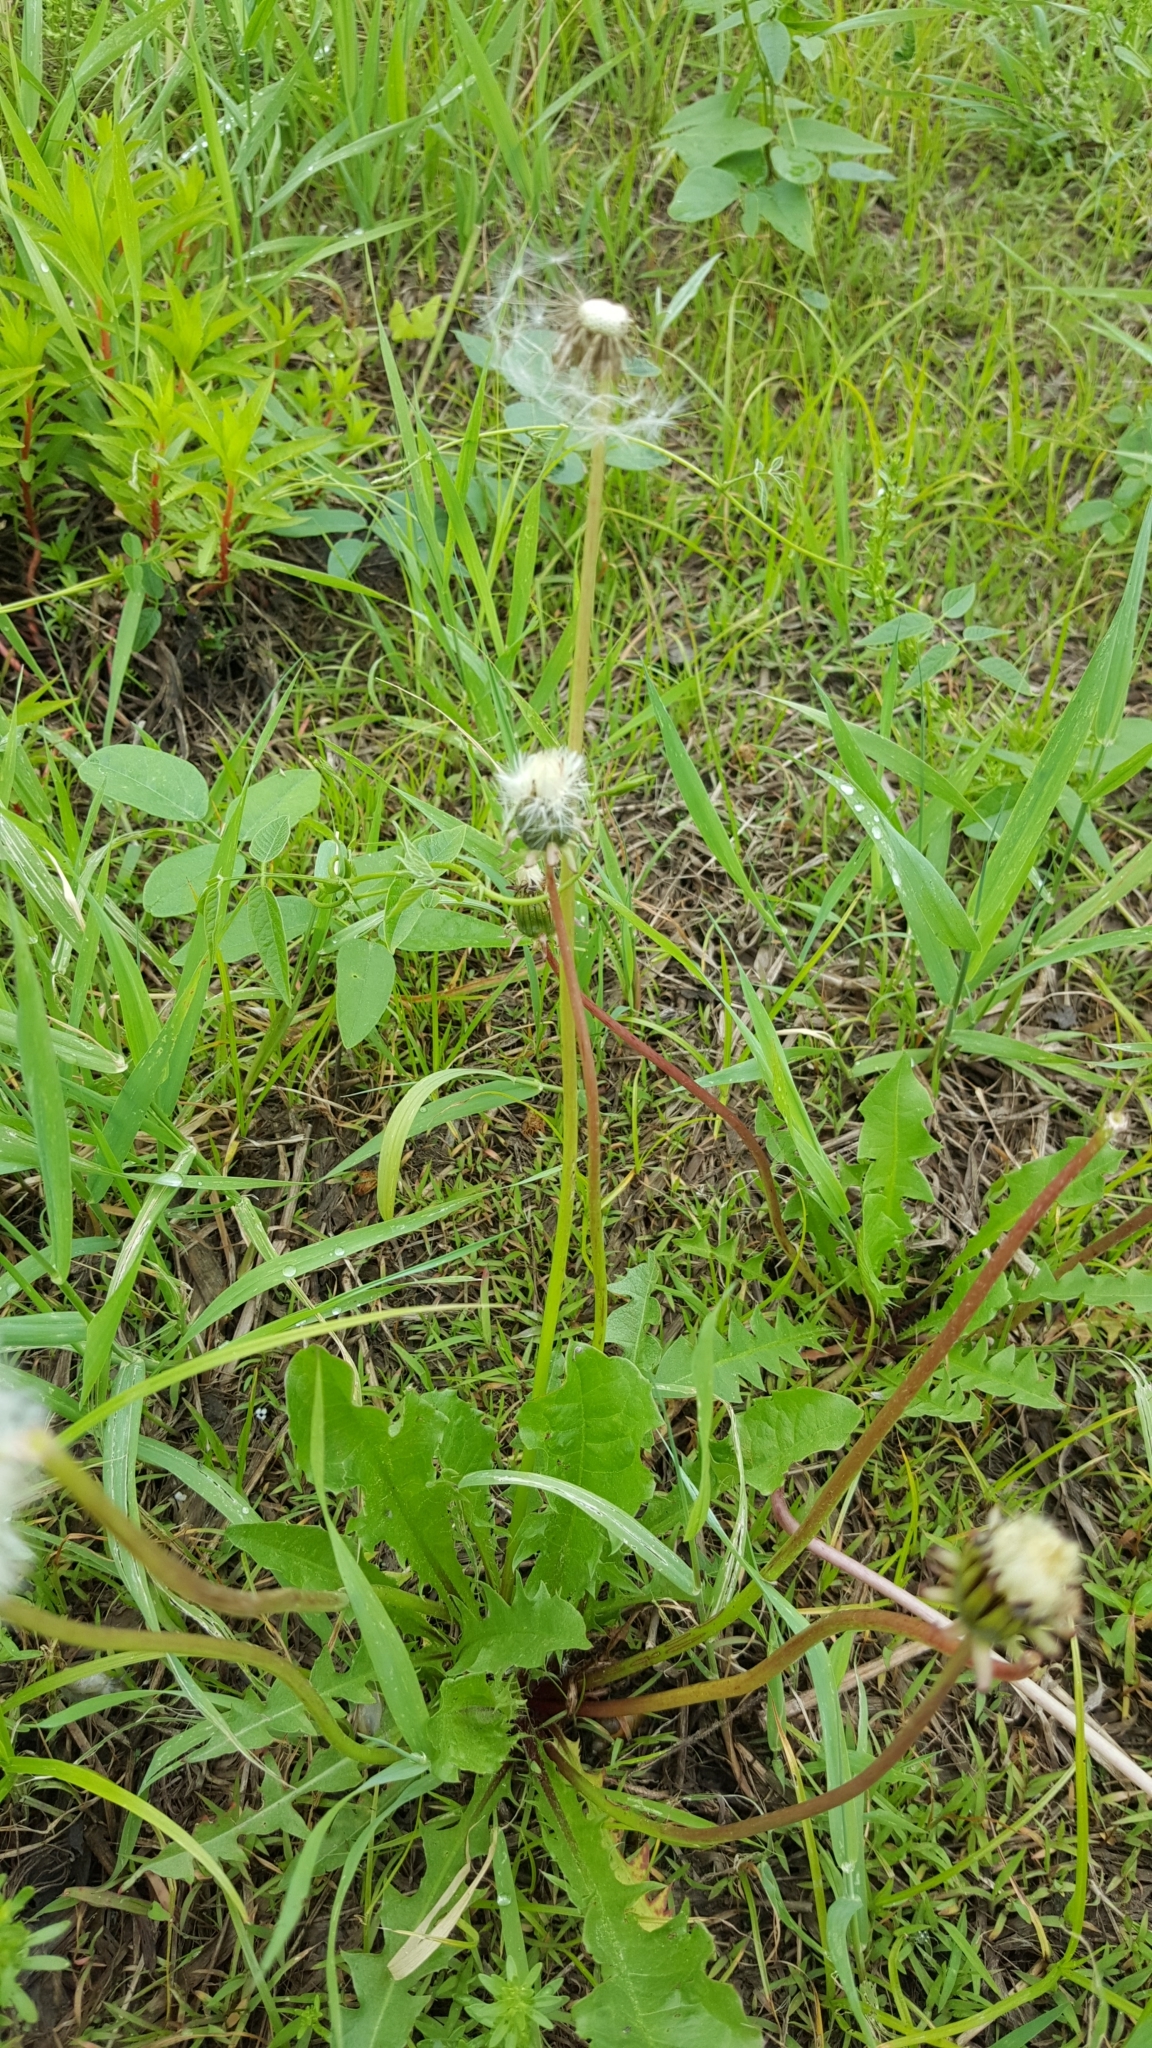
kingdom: Plantae
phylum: Tracheophyta
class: Magnoliopsida
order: Asterales
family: Asteraceae
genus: Taraxacum
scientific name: Taraxacum officinale
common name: Common dandelion
